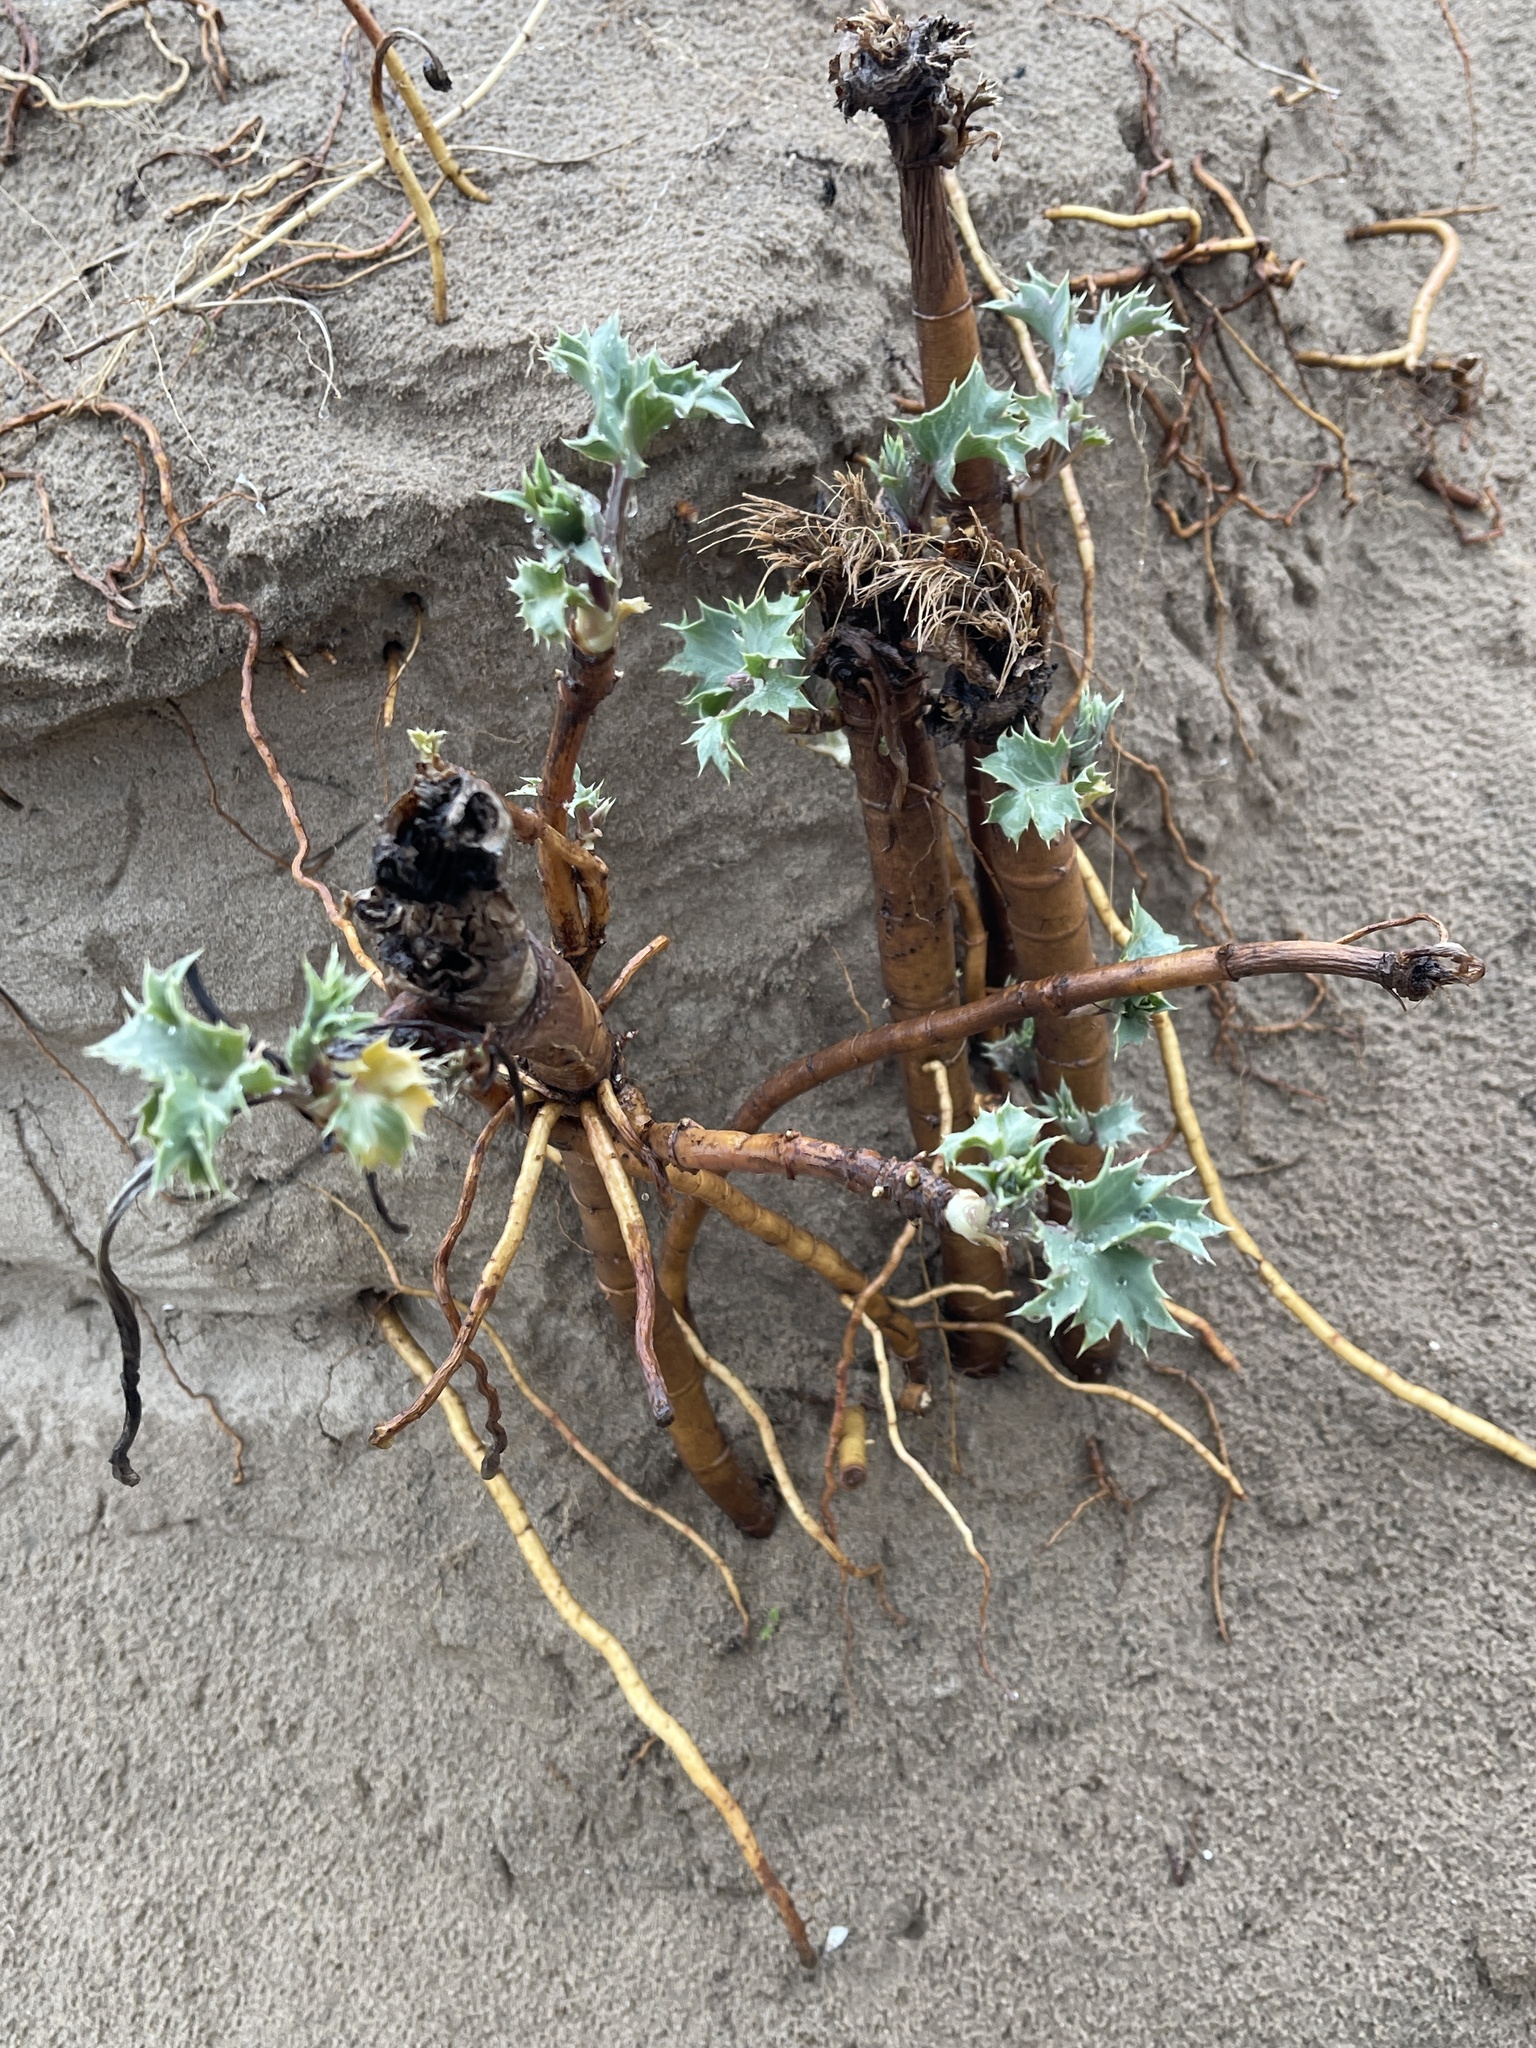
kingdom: Plantae
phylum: Tracheophyta
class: Magnoliopsida
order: Apiales
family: Apiaceae
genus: Eryngium
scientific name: Eryngium maritimum
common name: Sea-holly
